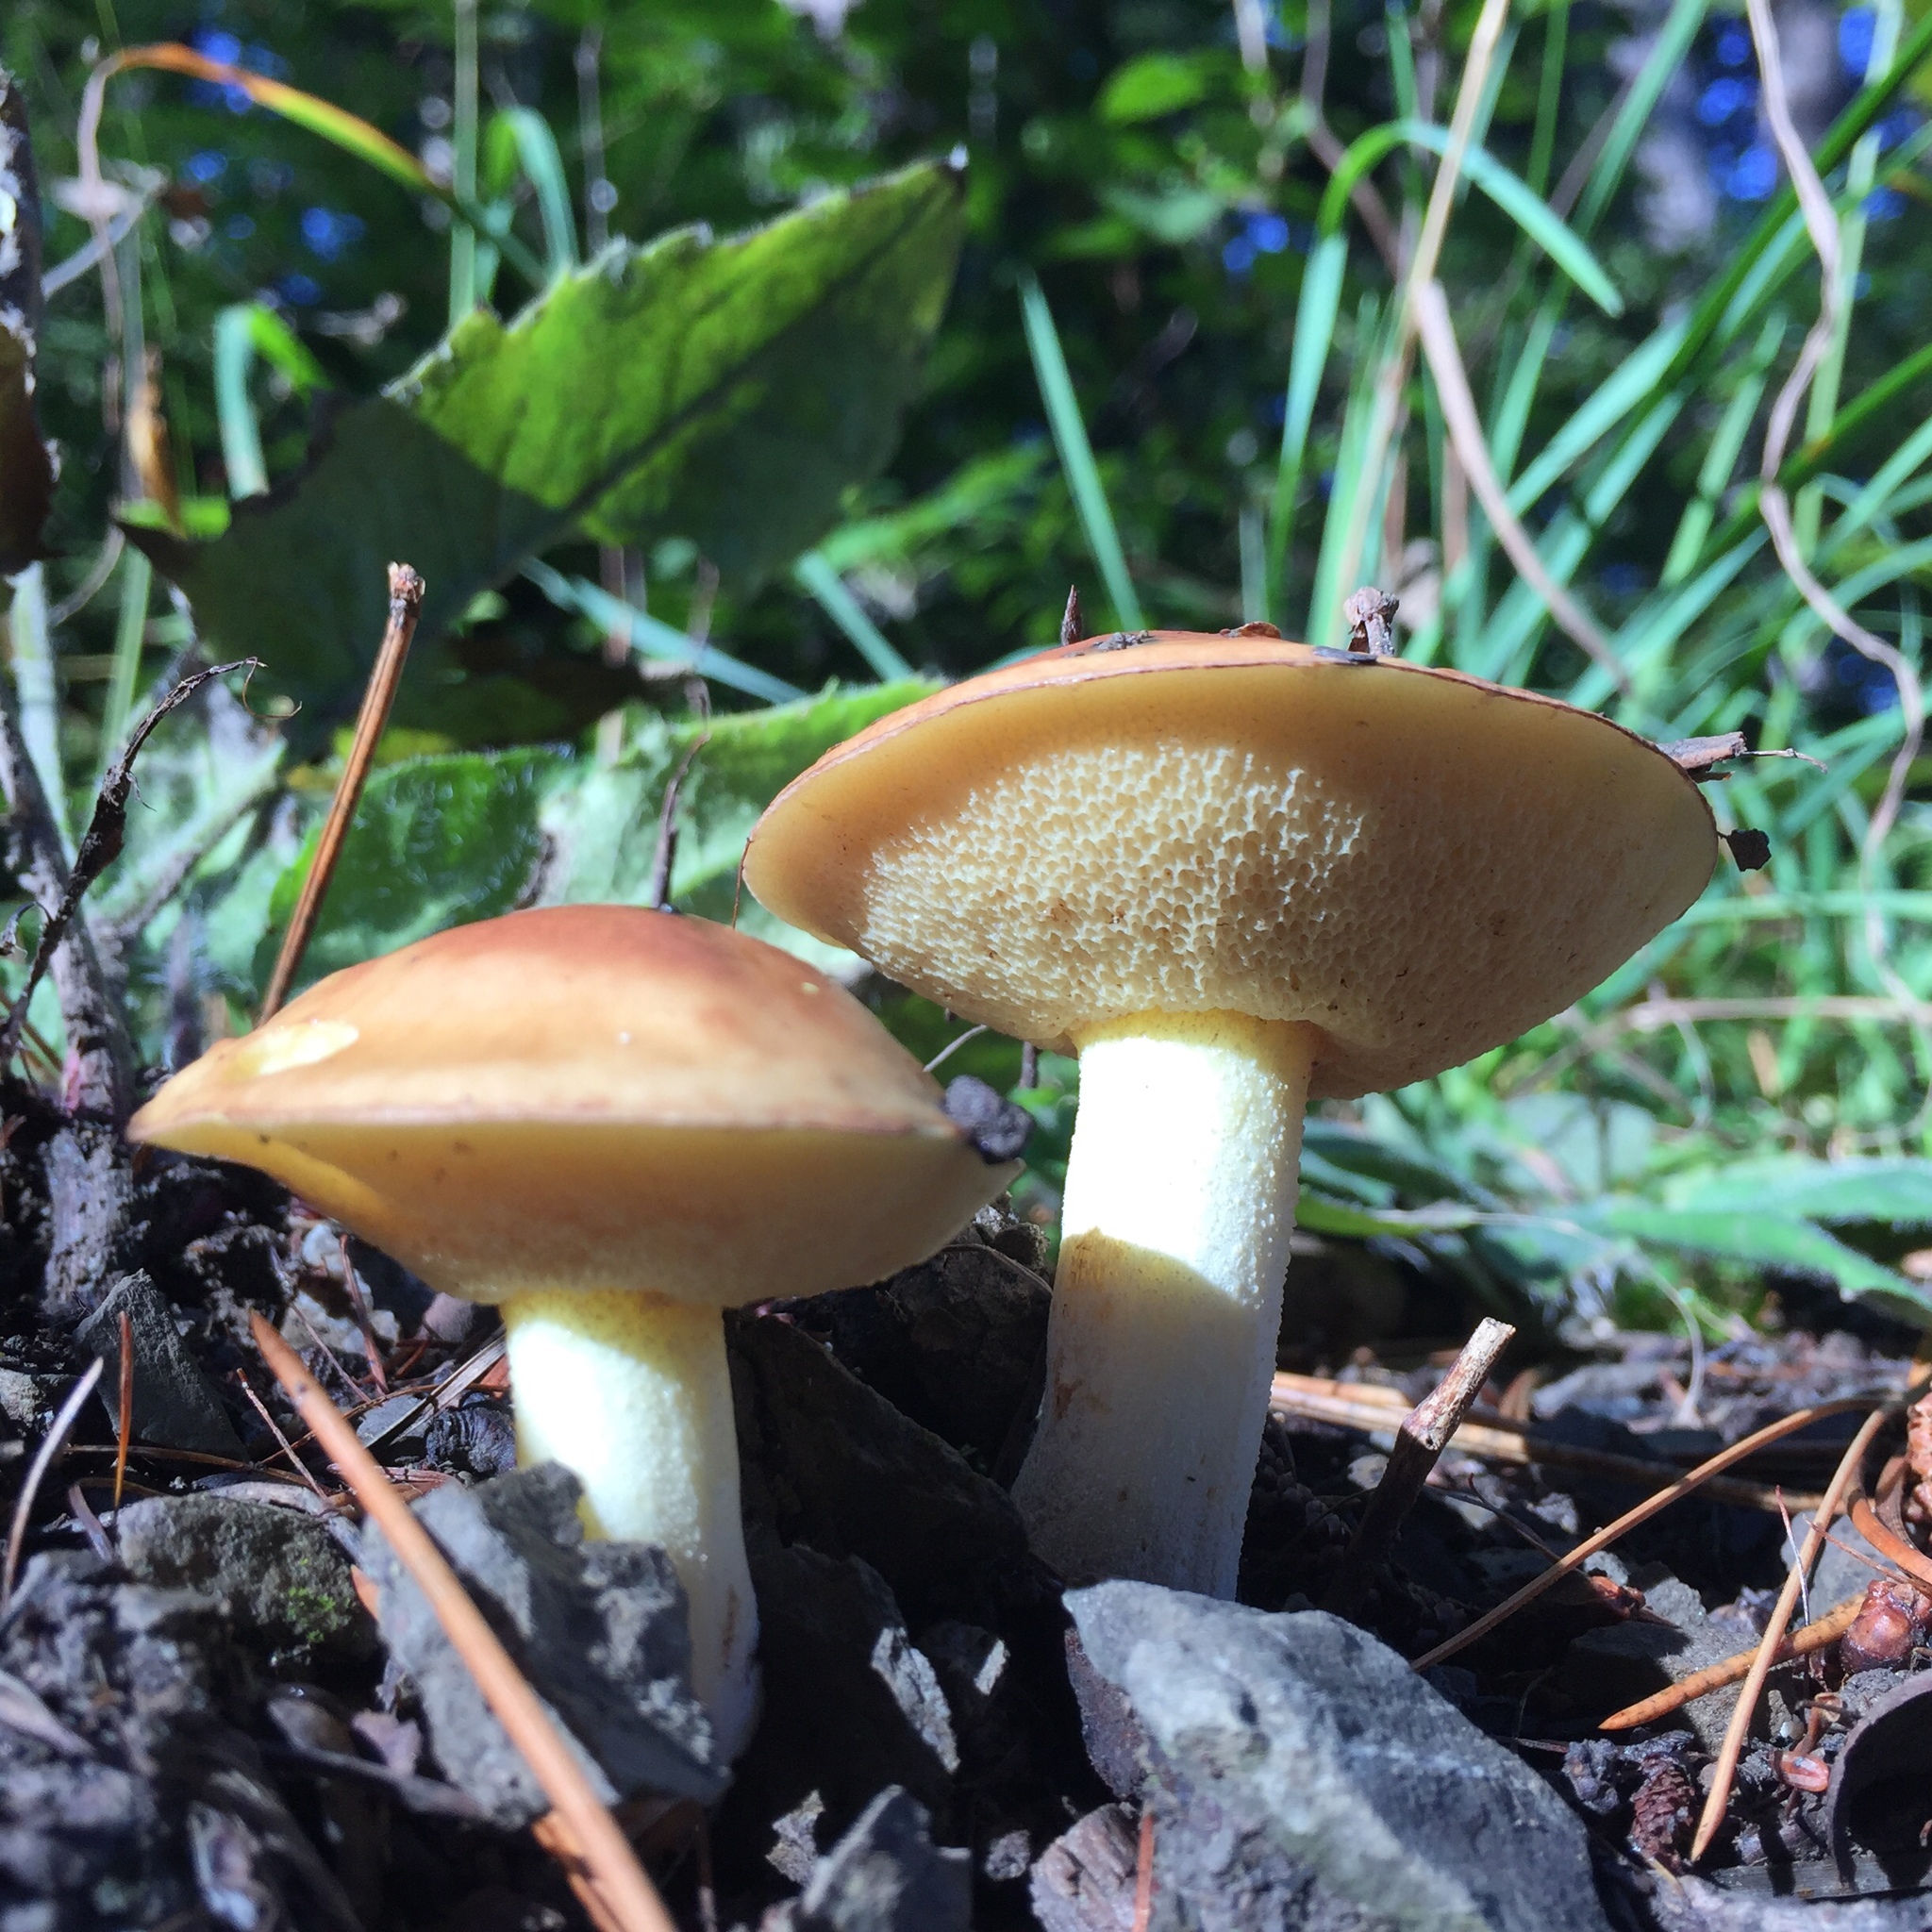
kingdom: Fungi
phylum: Basidiomycota
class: Agaricomycetes
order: Boletales
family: Suillaceae
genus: Suillus
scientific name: Suillus granulatus
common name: Weeping bolete
